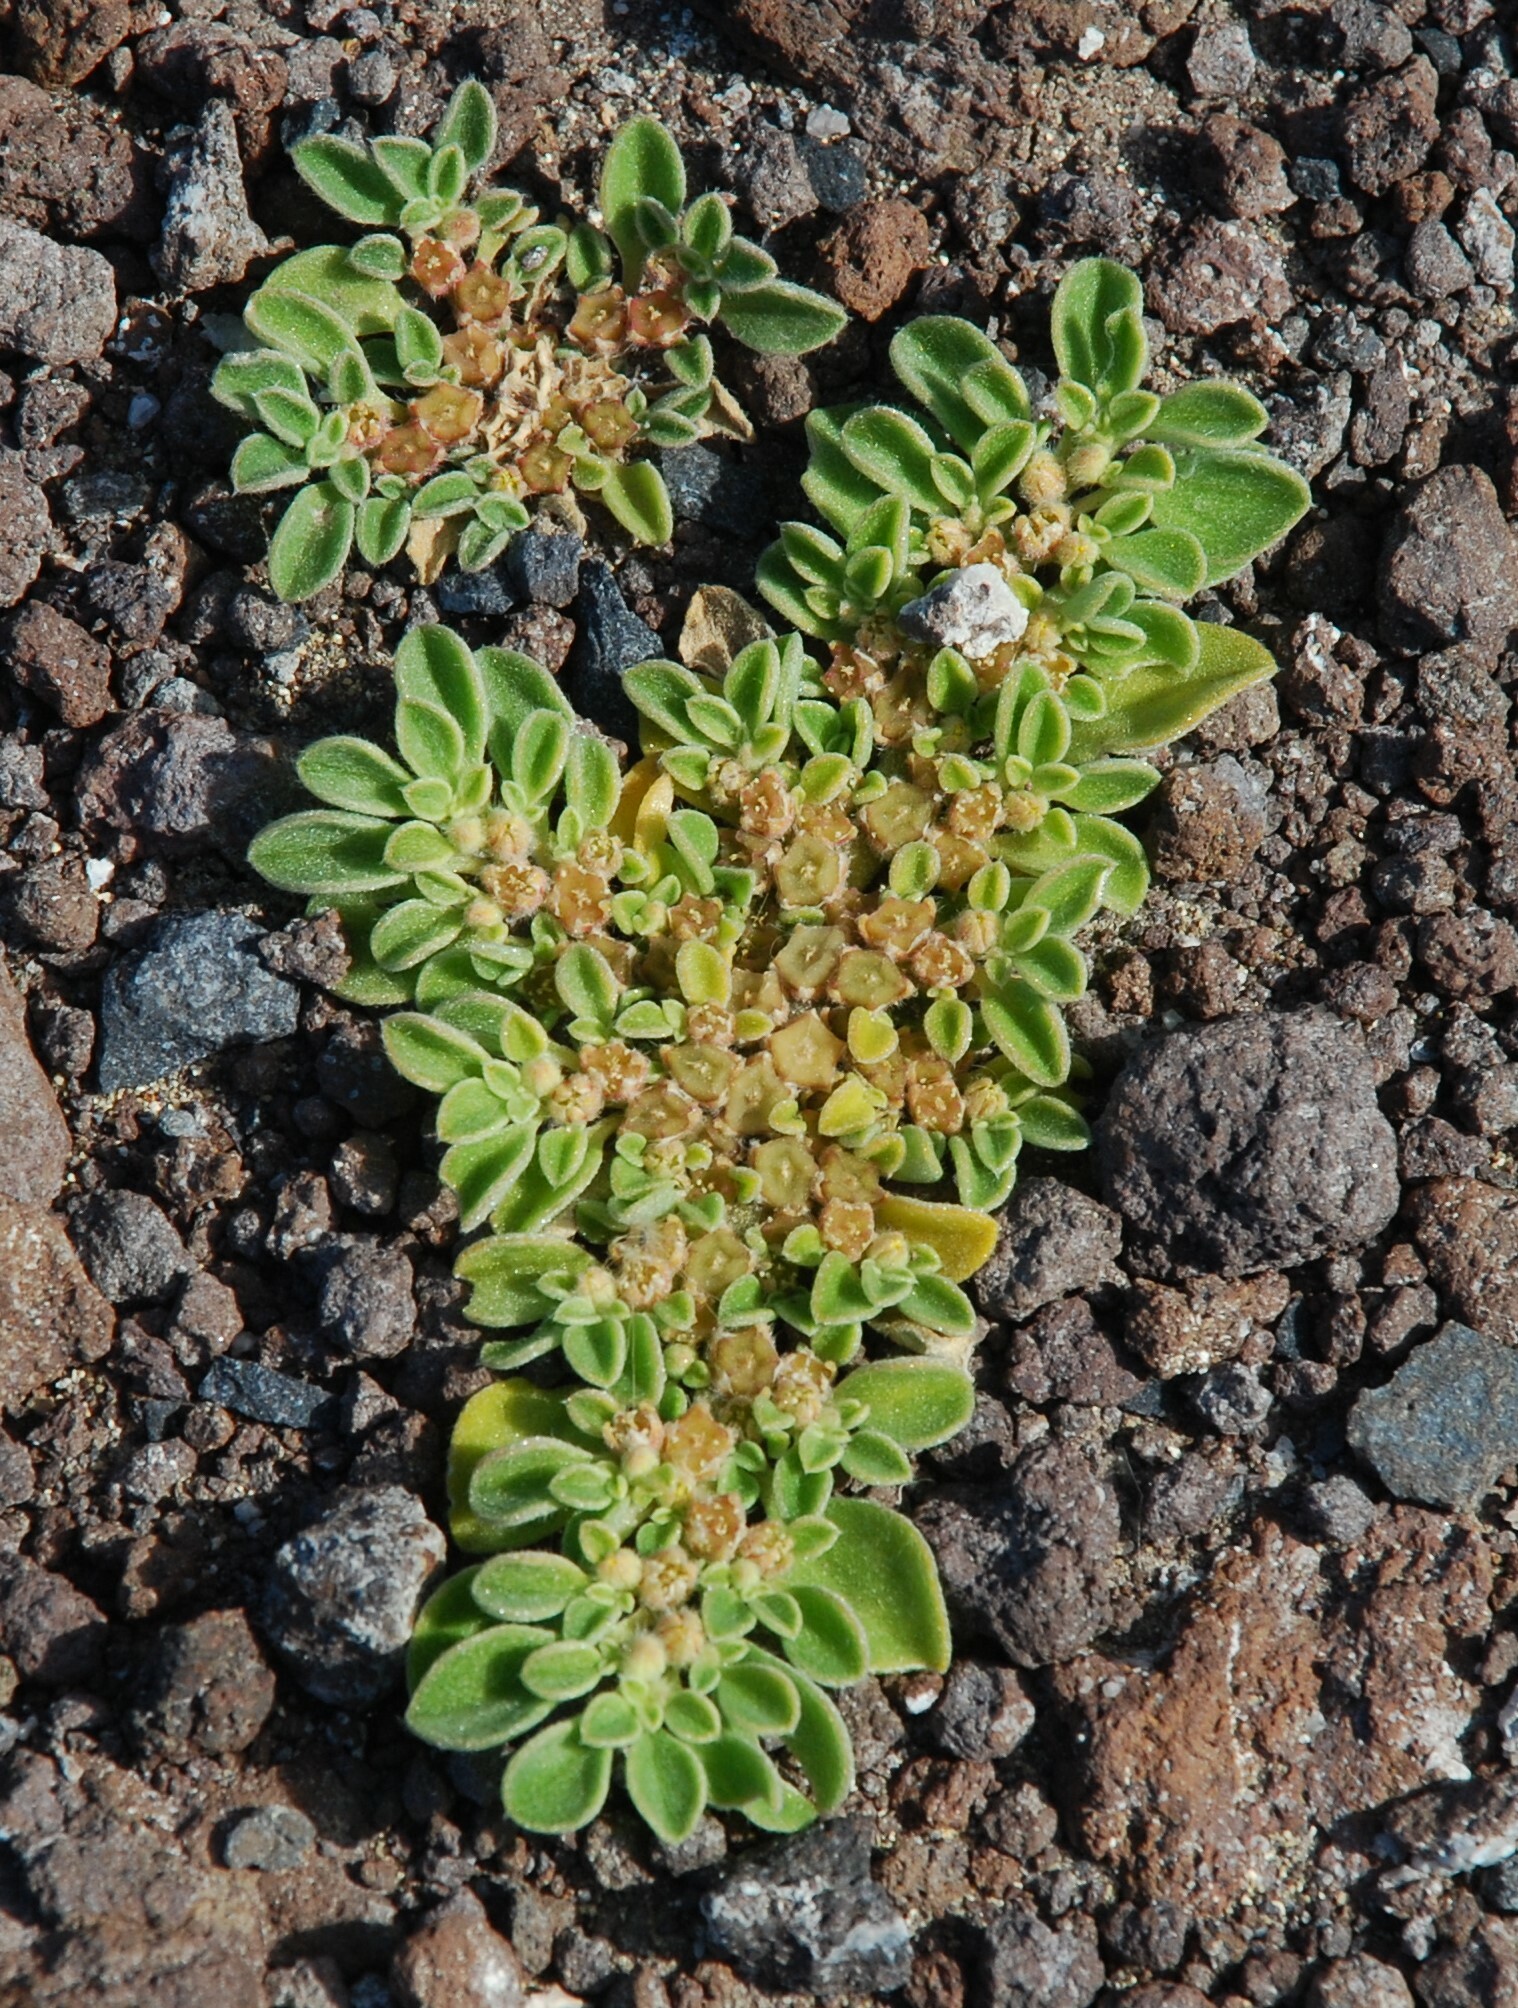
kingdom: Plantae
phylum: Tracheophyta
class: Magnoliopsida
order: Caryophyllales
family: Aizoaceae
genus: Aizoon
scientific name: Aizoon canariense
